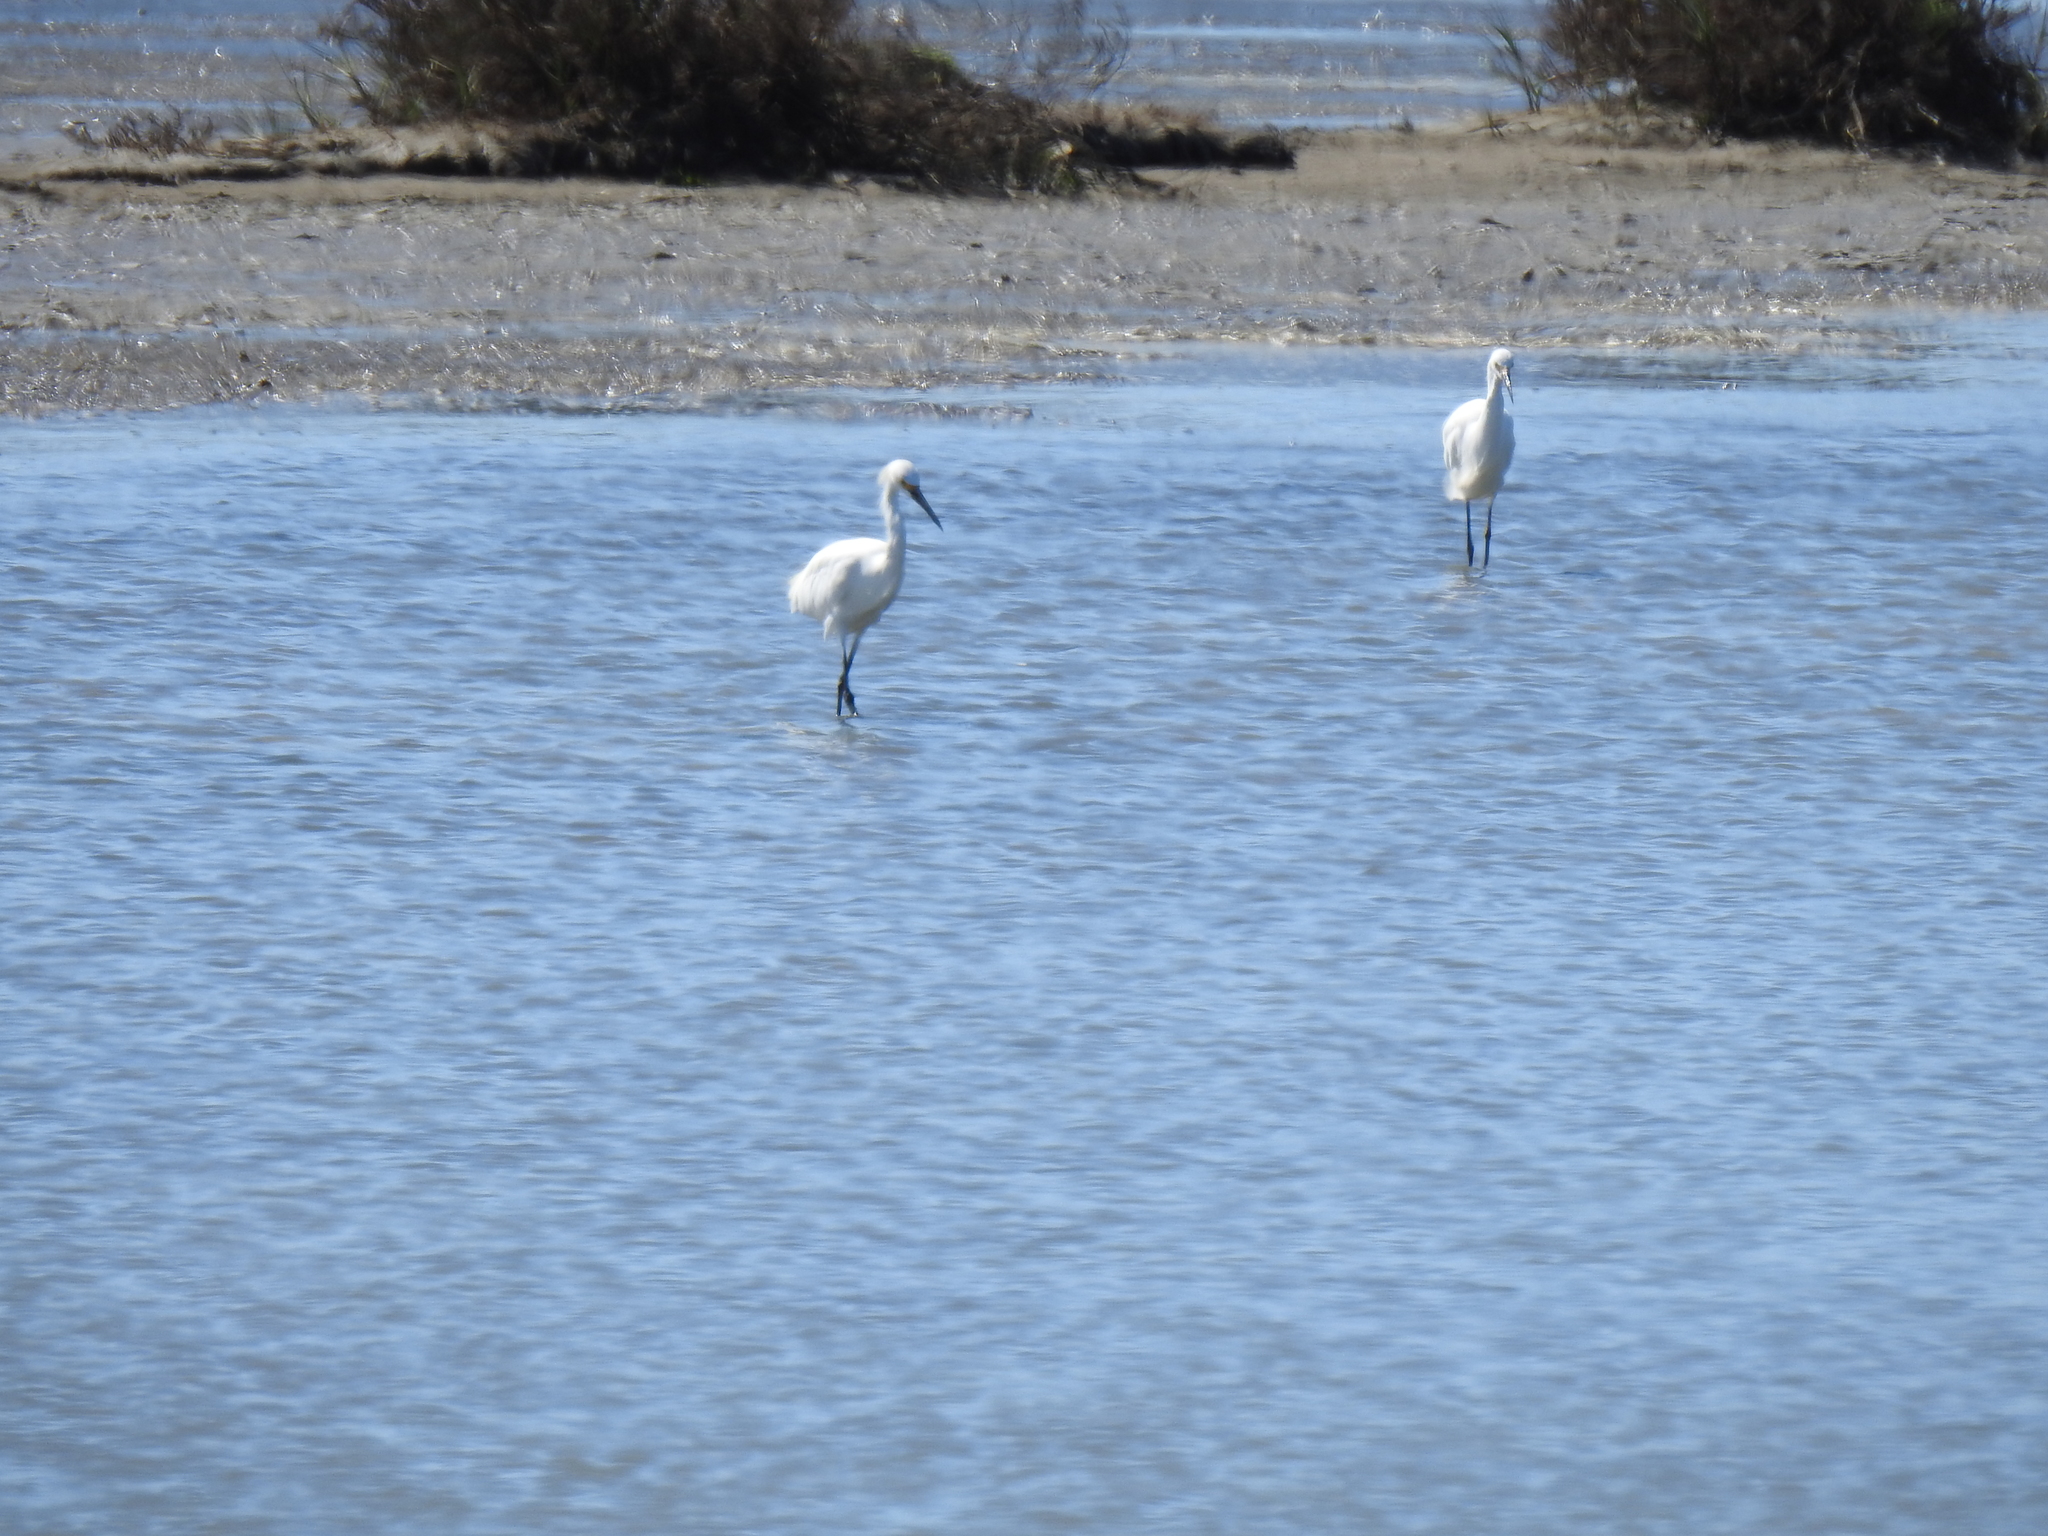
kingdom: Animalia
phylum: Chordata
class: Aves
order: Pelecaniformes
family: Ardeidae
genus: Egretta
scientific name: Egretta thula
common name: Snowy egret
